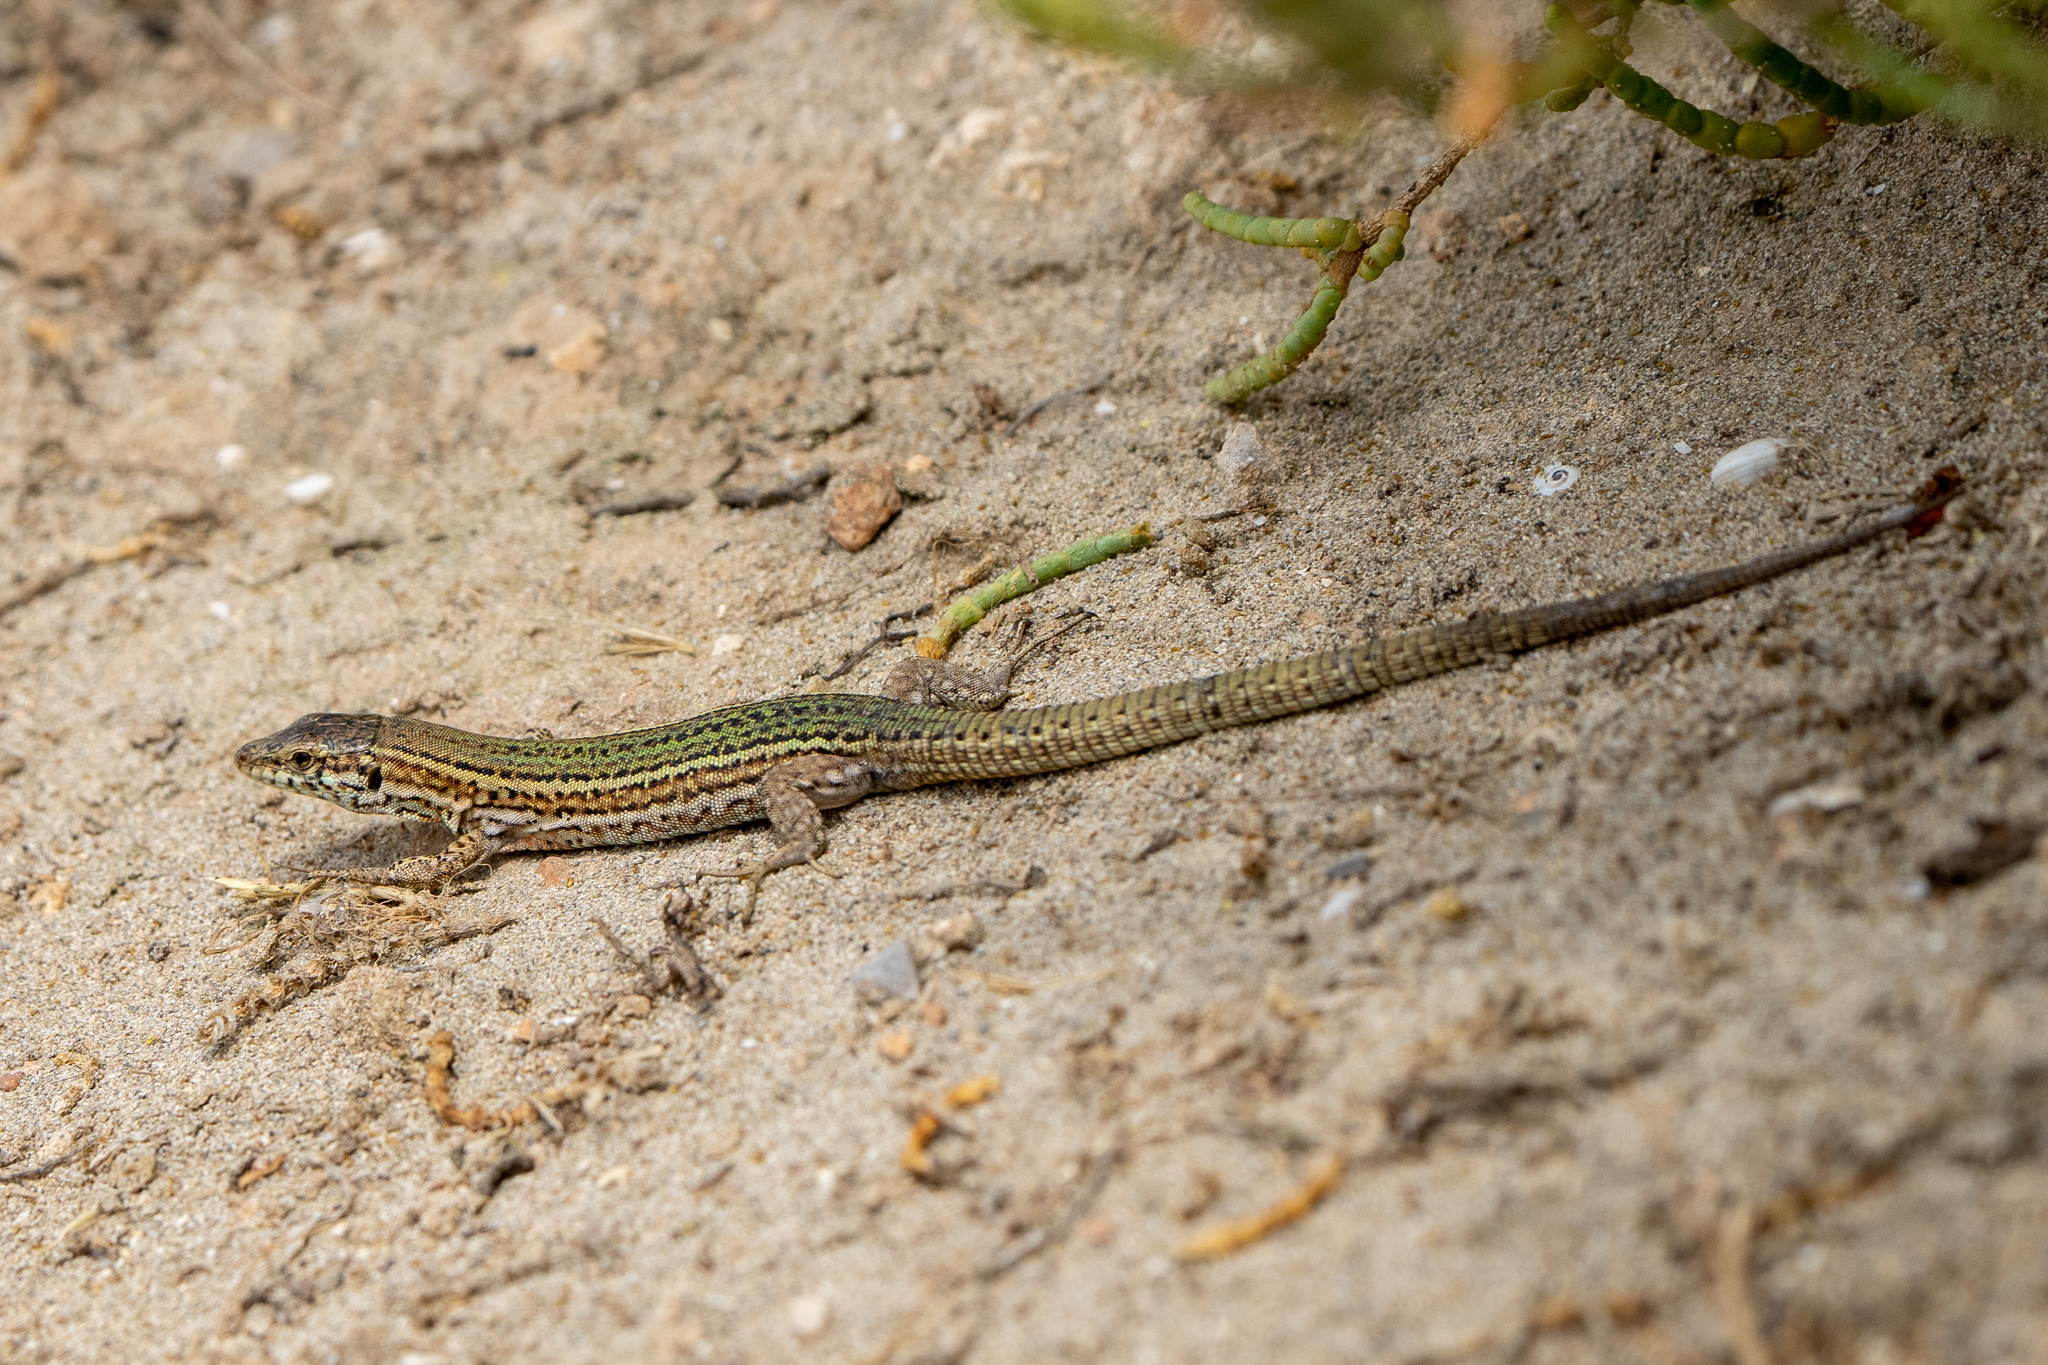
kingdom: Animalia
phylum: Chordata
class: Squamata
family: Lacertidae
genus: Podarcis
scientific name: Podarcis pityusensis
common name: Ibiza wall lizard
